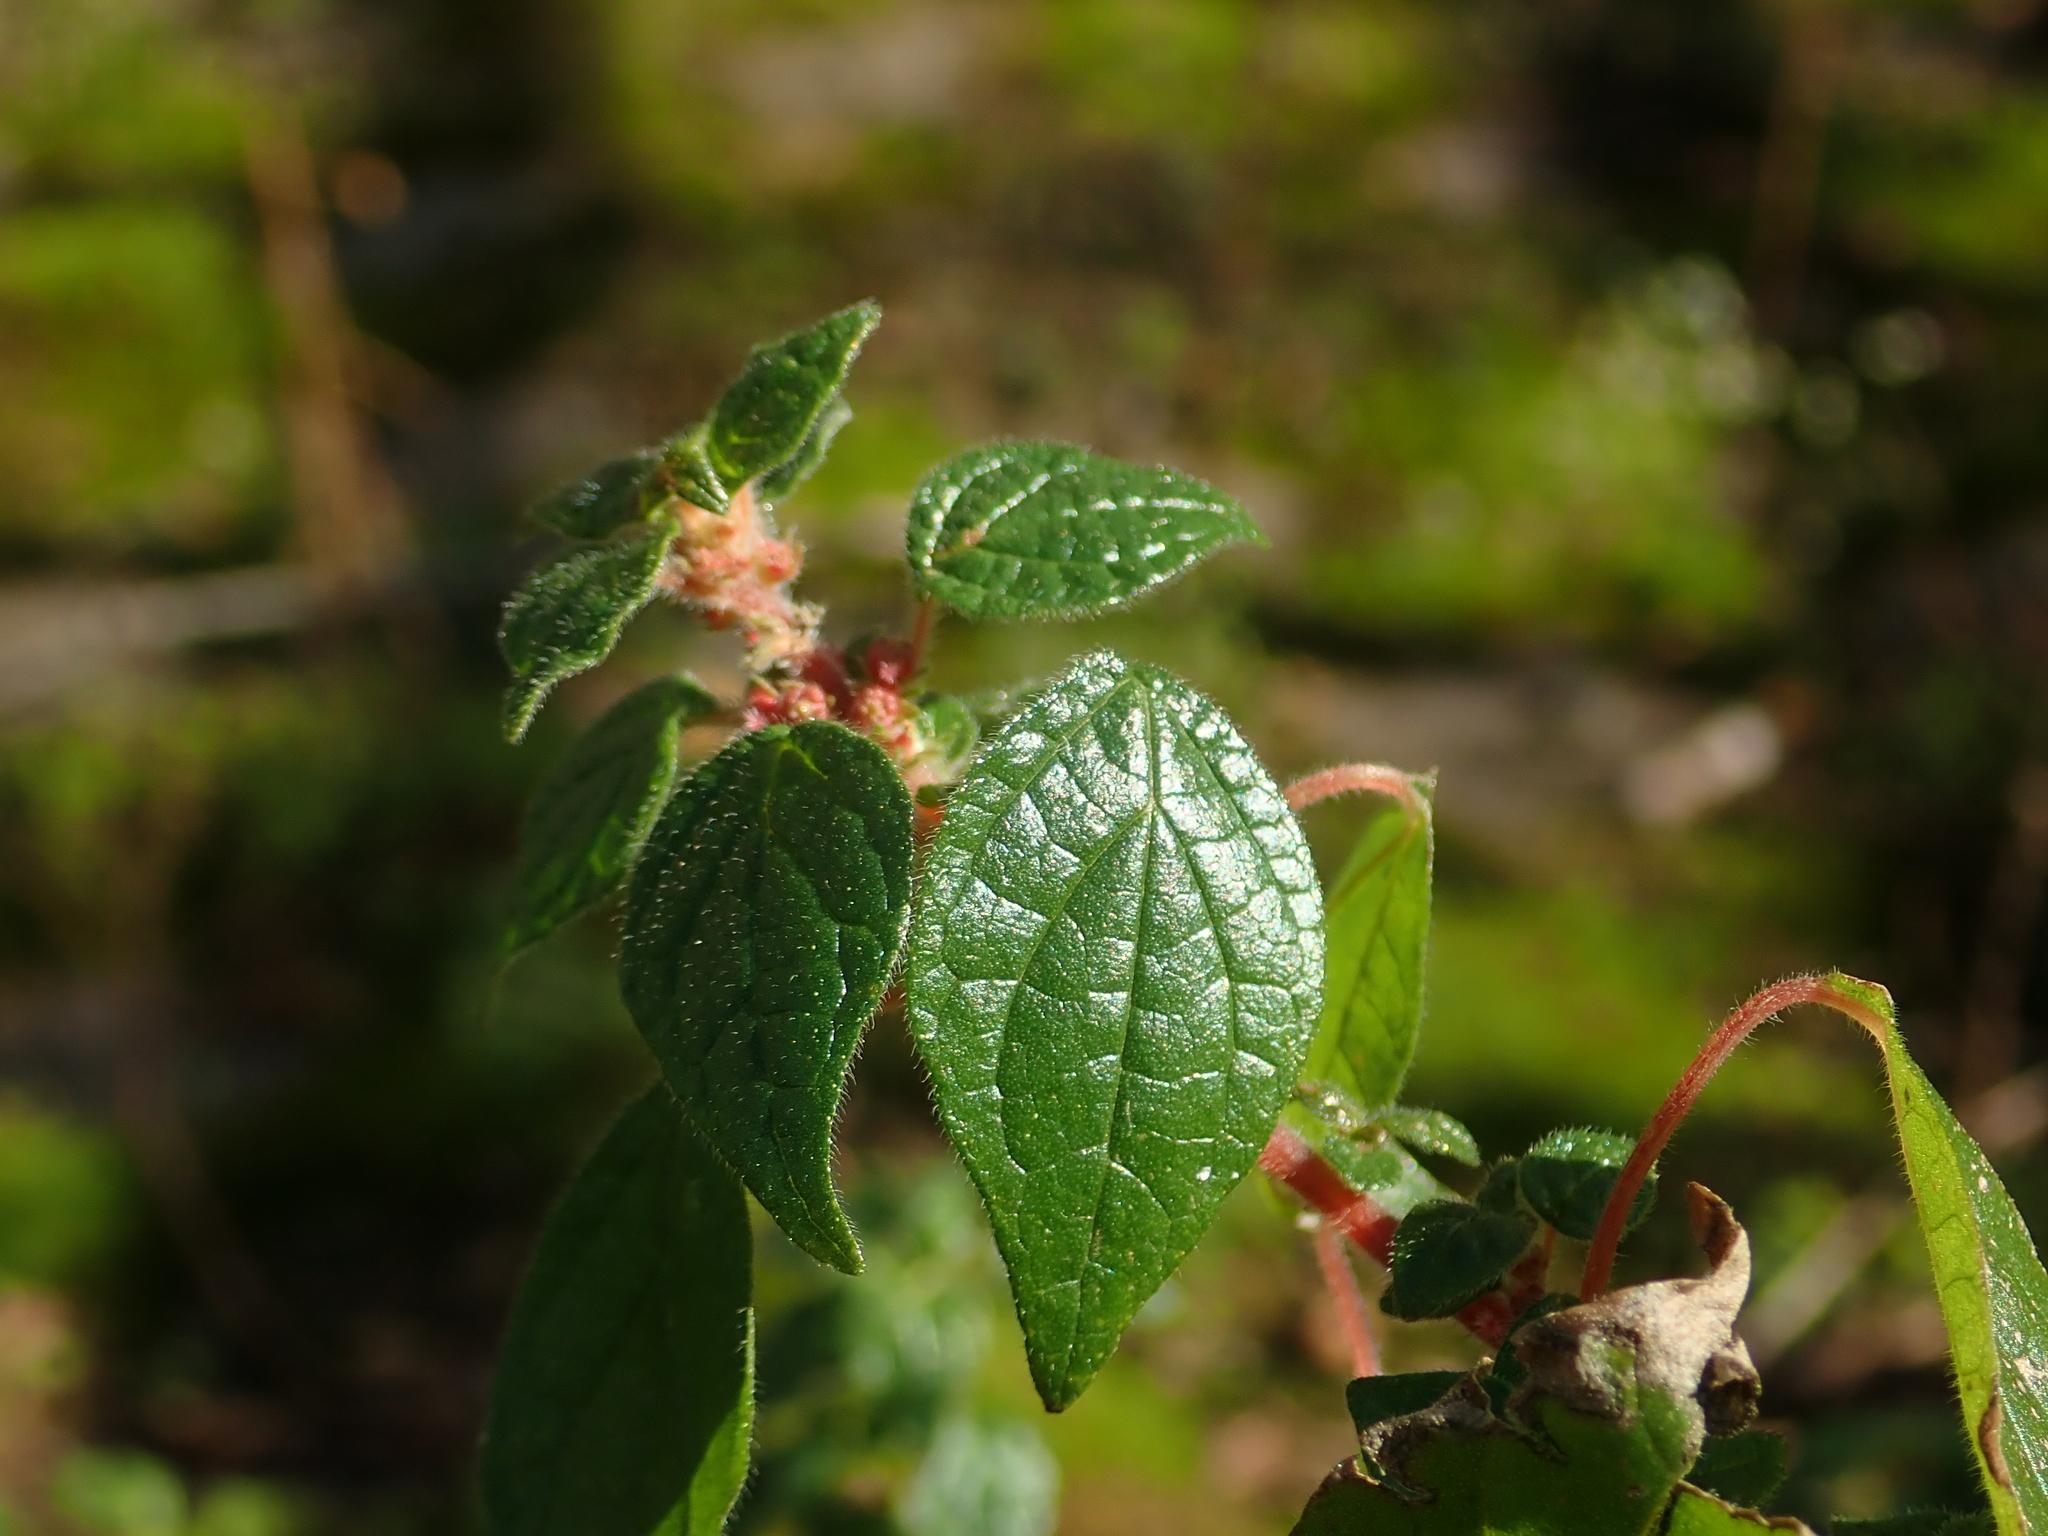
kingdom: Plantae
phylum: Tracheophyta
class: Magnoliopsida
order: Rosales
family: Urticaceae
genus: Parietaria
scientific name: Parietaria judaica
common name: Pellitory-of-the-wall
